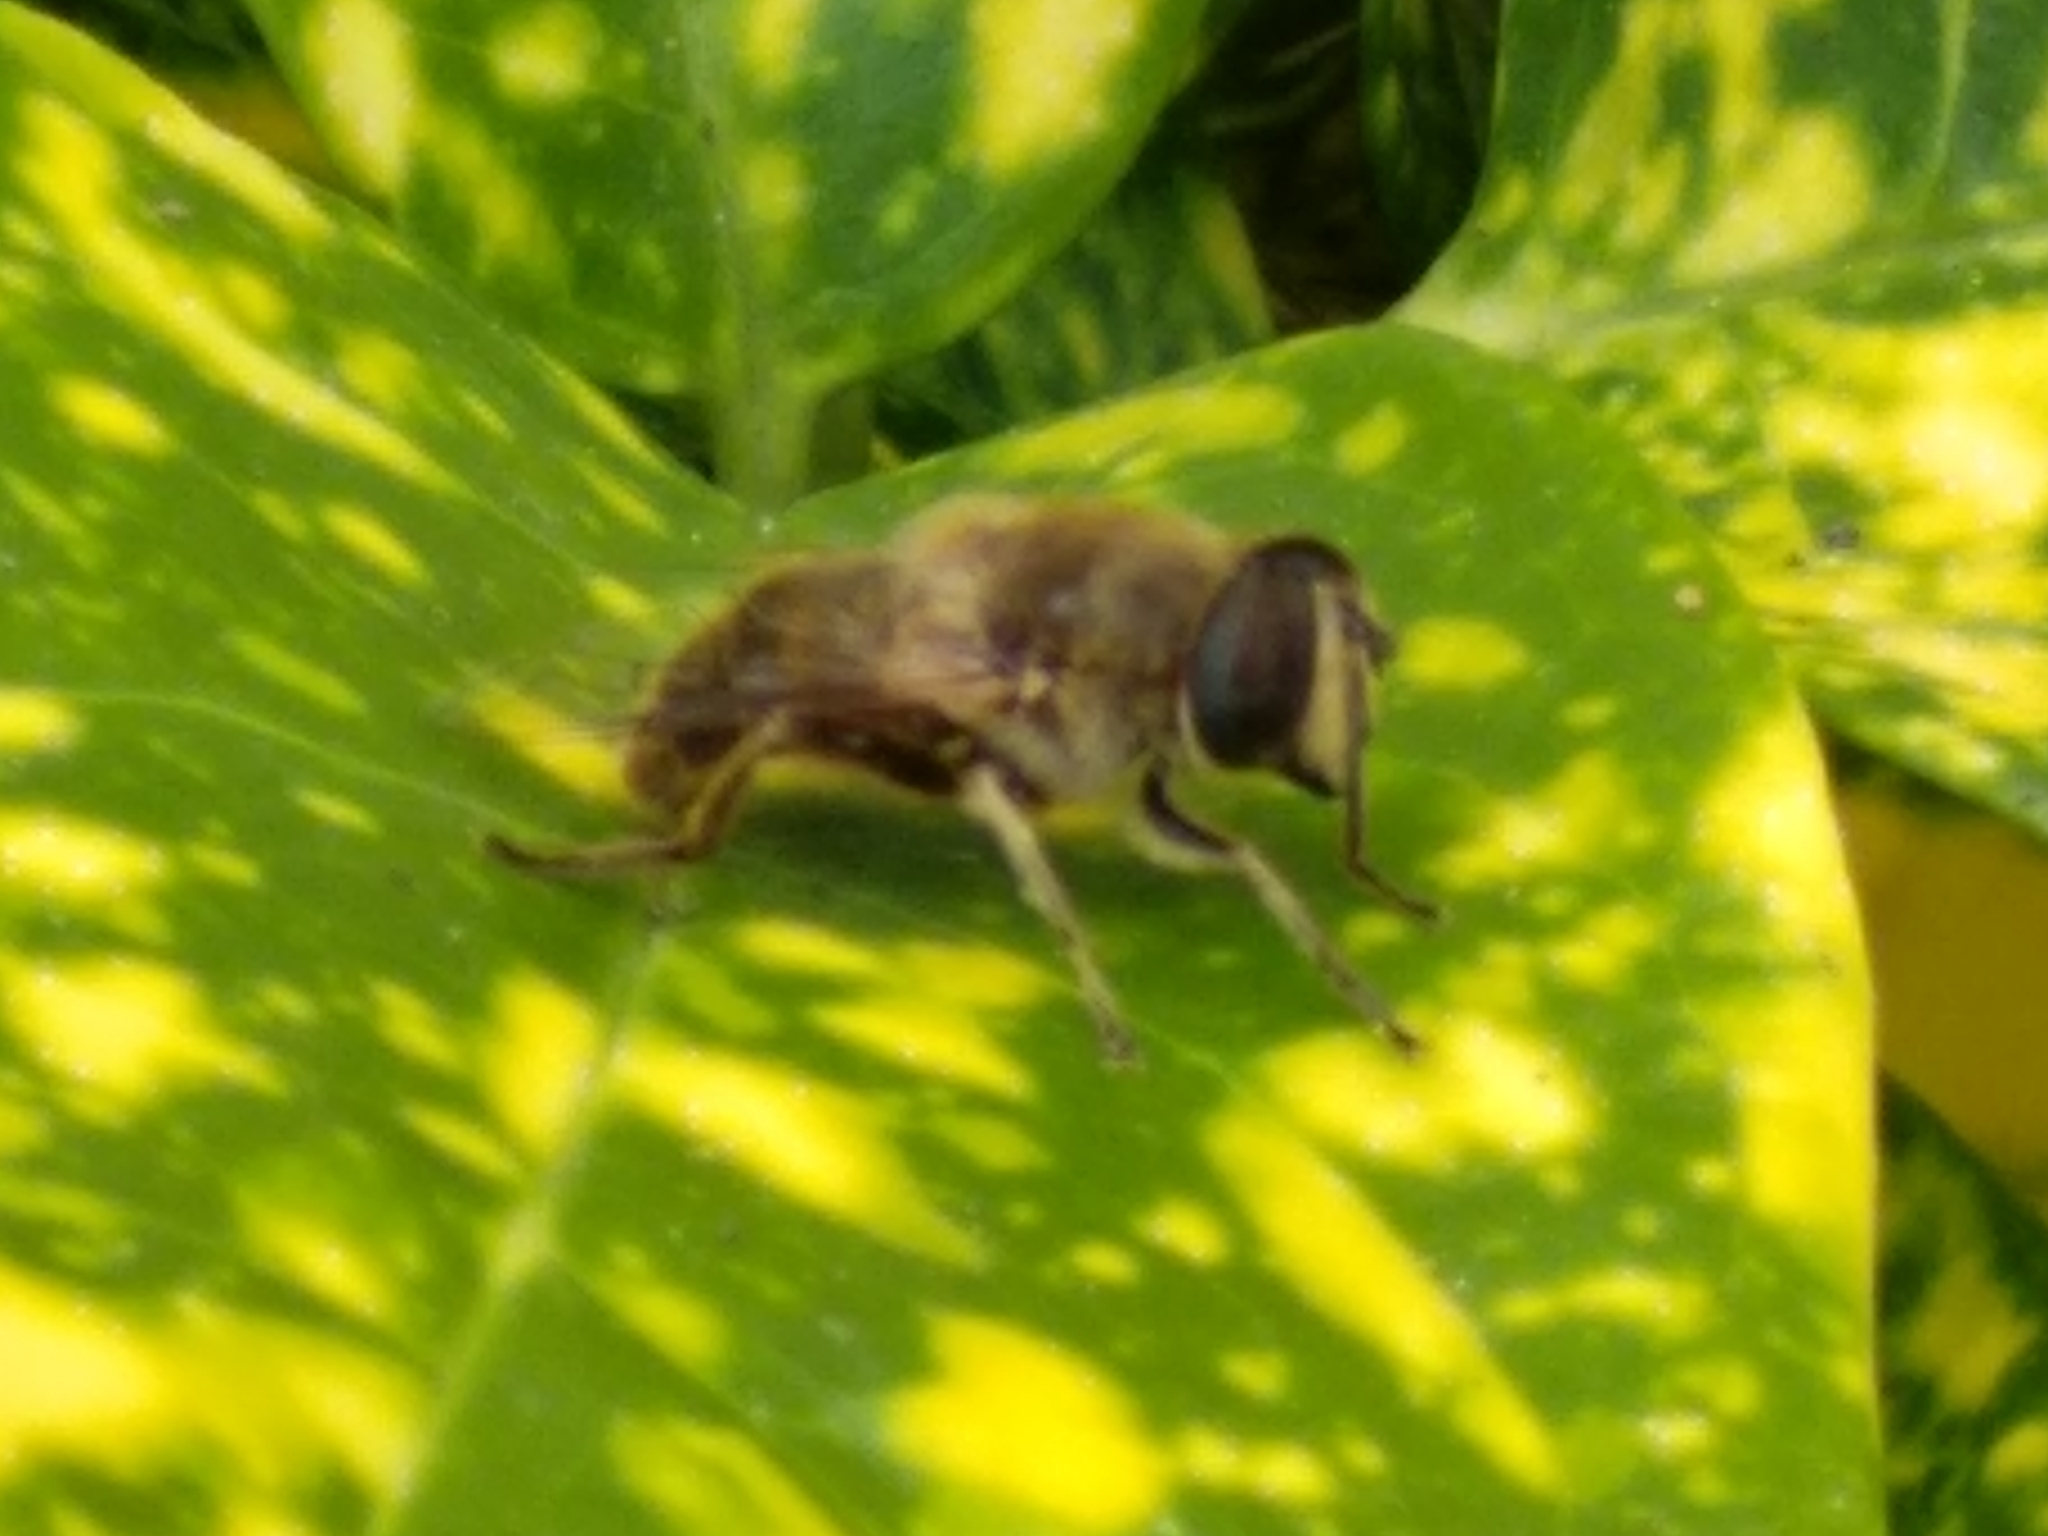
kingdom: Animalia
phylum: Arthropoda
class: Insecta
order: Diptera
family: Syrphidae
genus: Eristalis
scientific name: Eristalis tenax
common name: Drone fly
